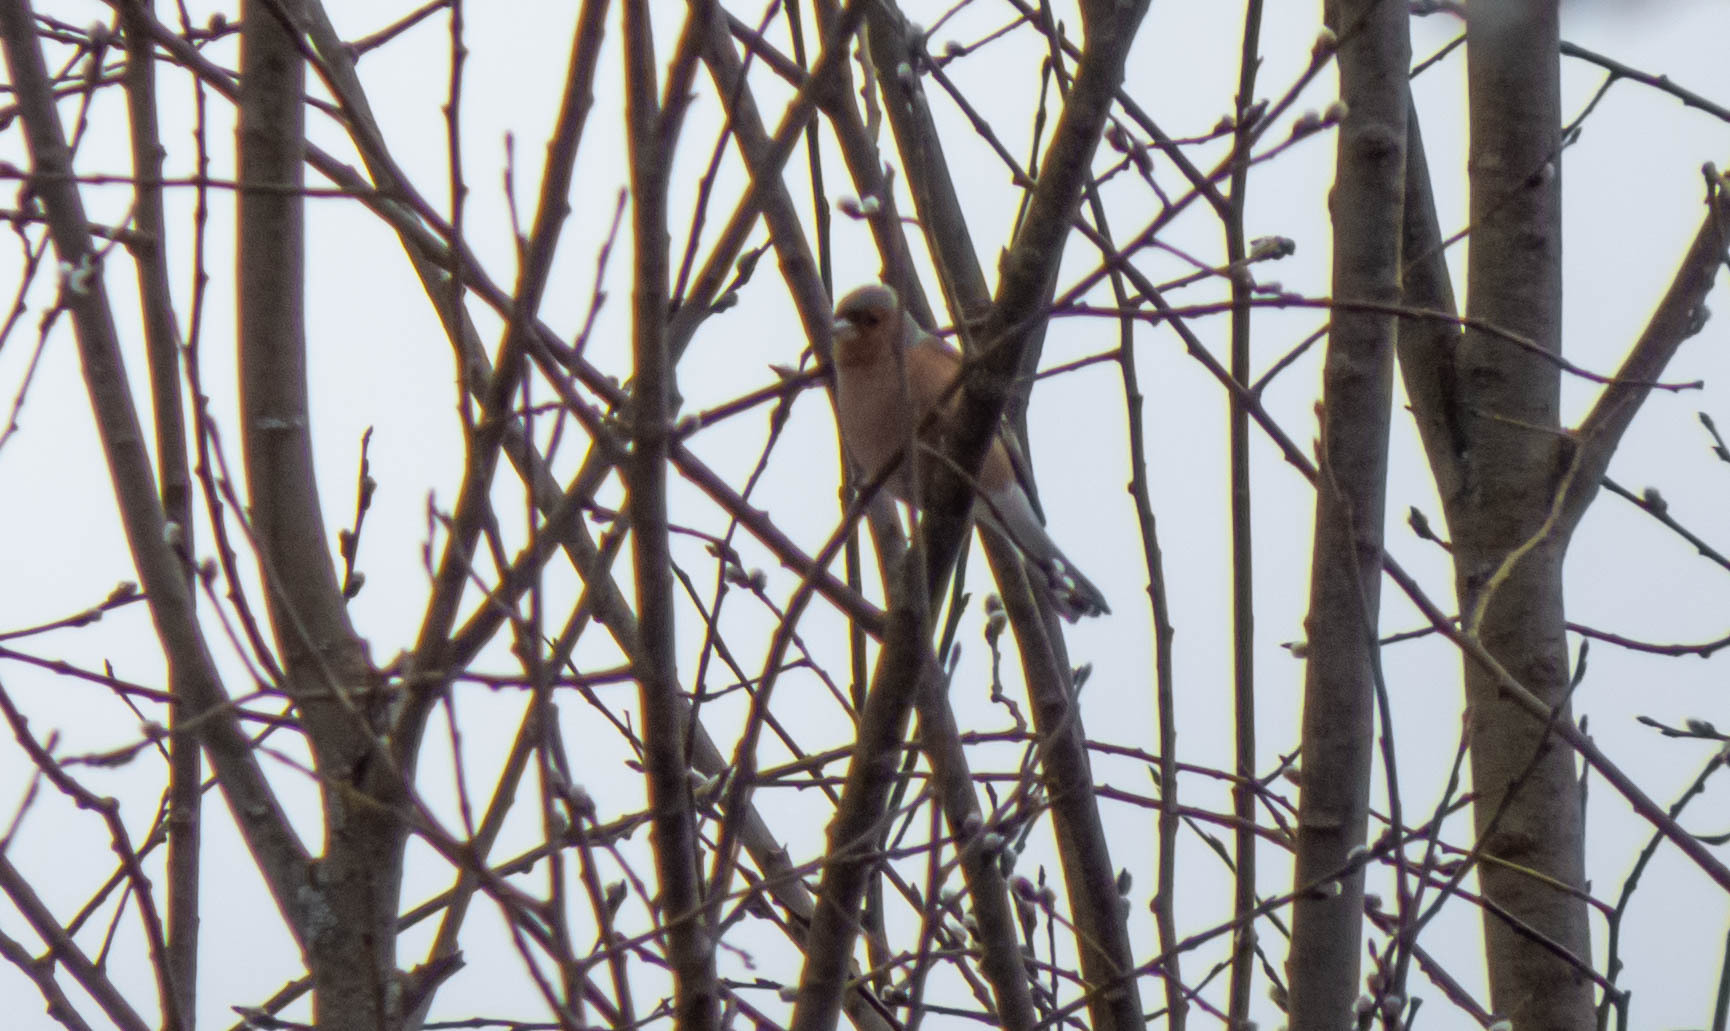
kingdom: Animalia
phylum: Chordata
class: Aves
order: Passeriformes
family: Fringillidae
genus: Fringilla
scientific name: Fringilla coelebs
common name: Common chaffinch
